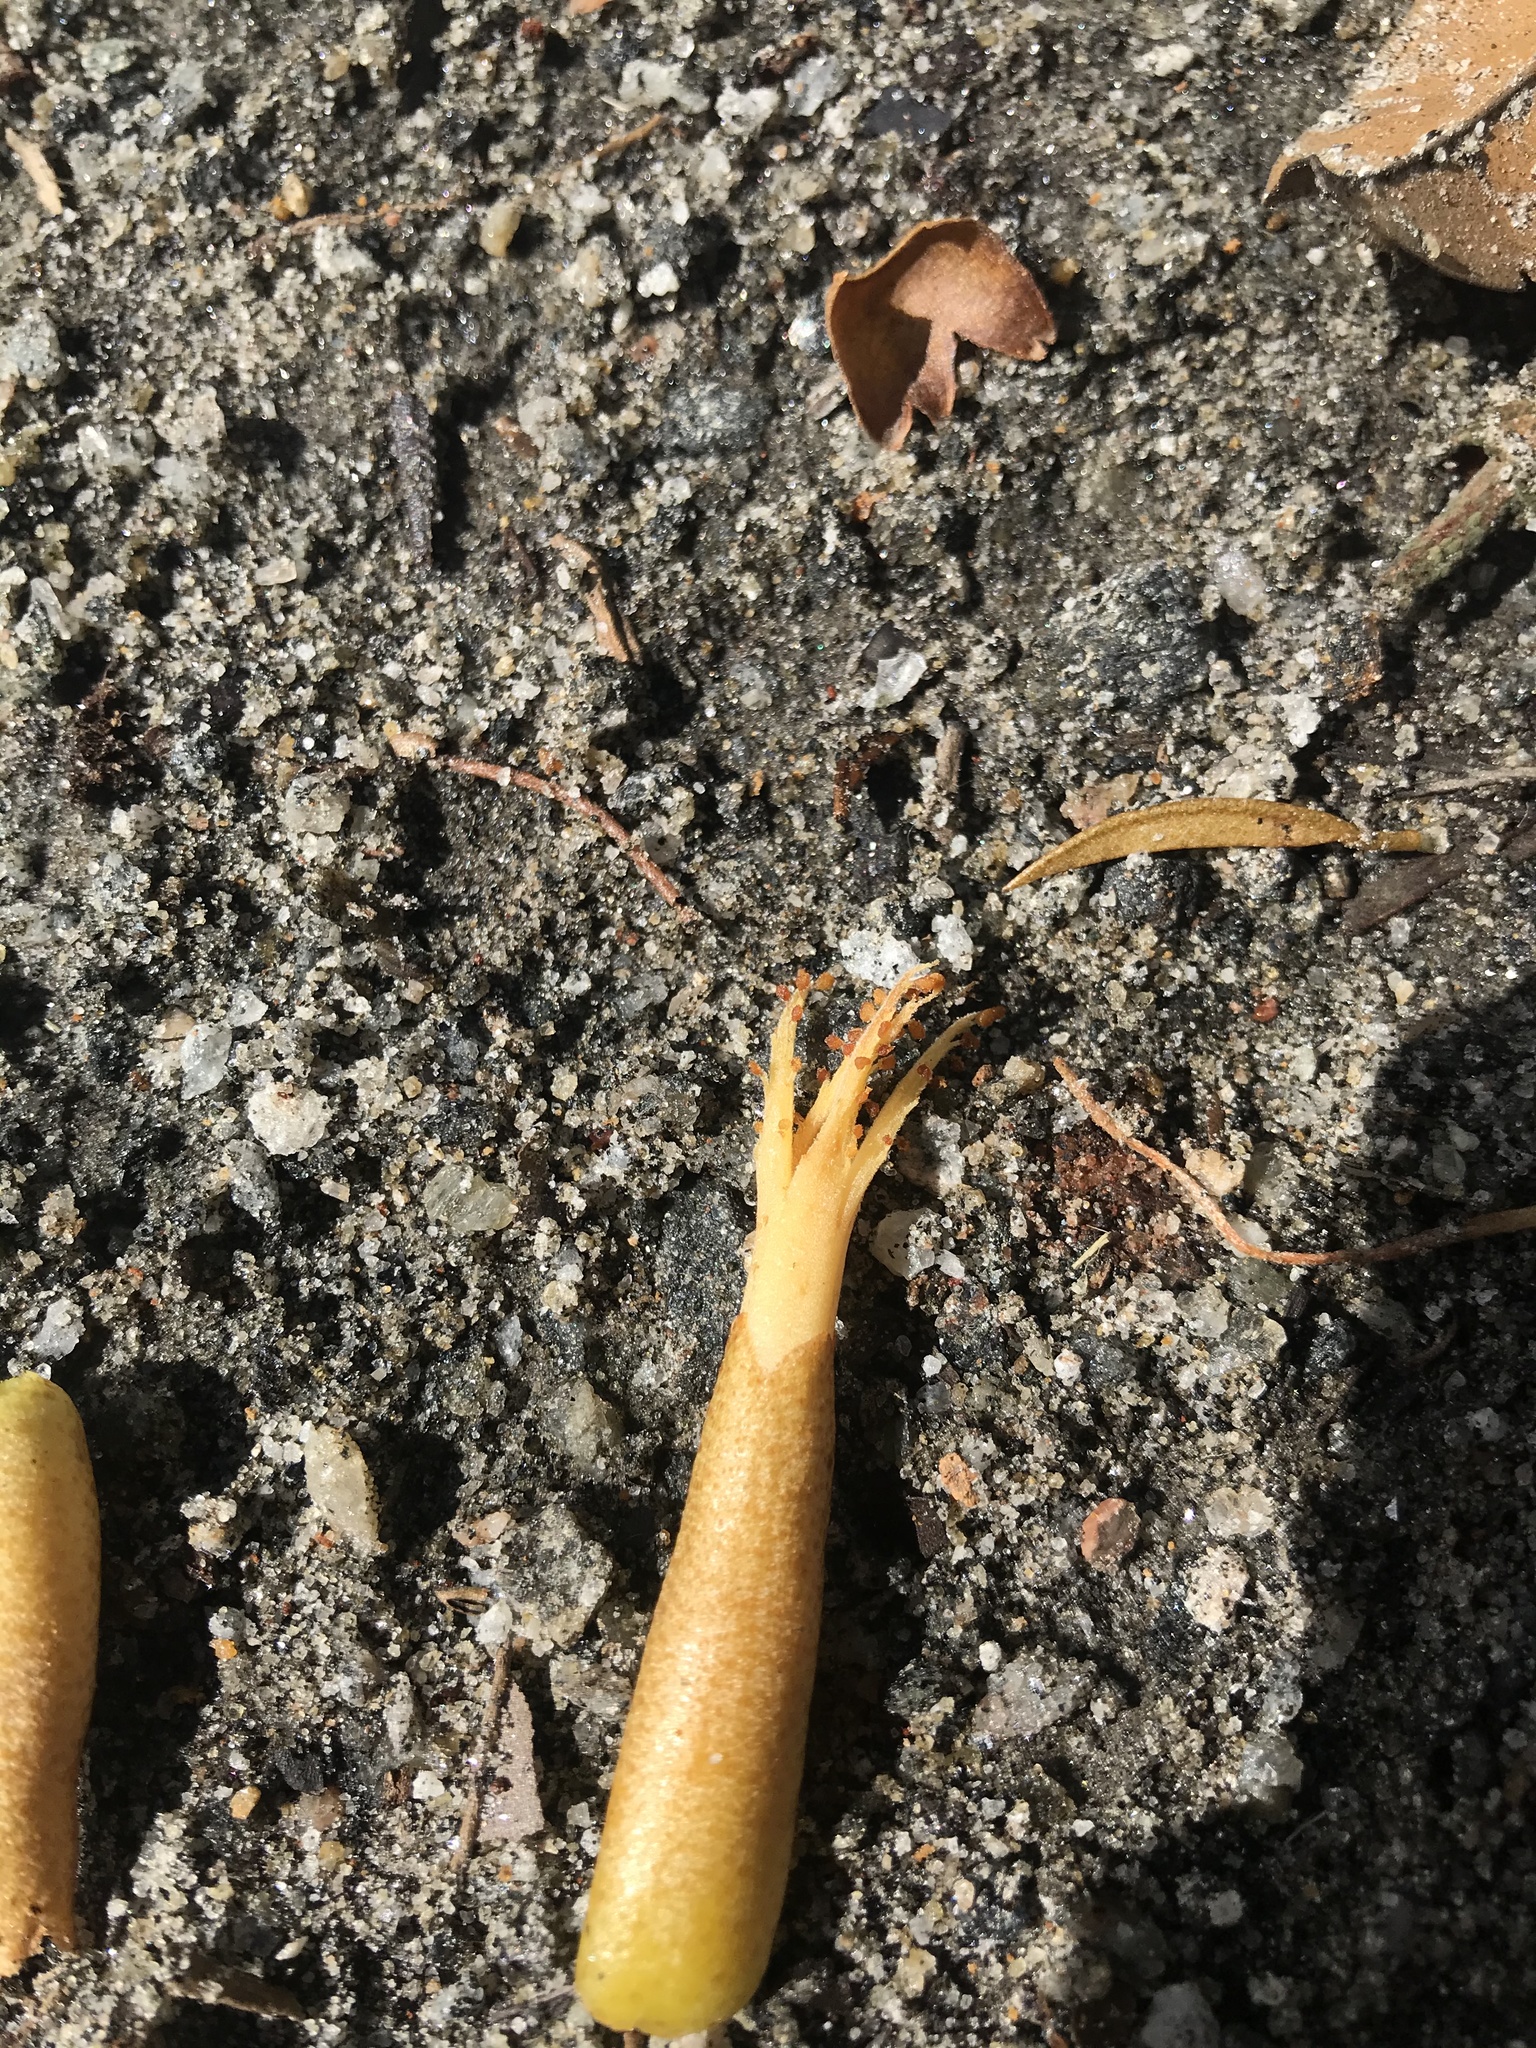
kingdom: Plantae
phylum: Tracheophyta
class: Magnoliopsida
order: Malvales
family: Malvaceae
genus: Cullenia
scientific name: Cullenia exarillata
